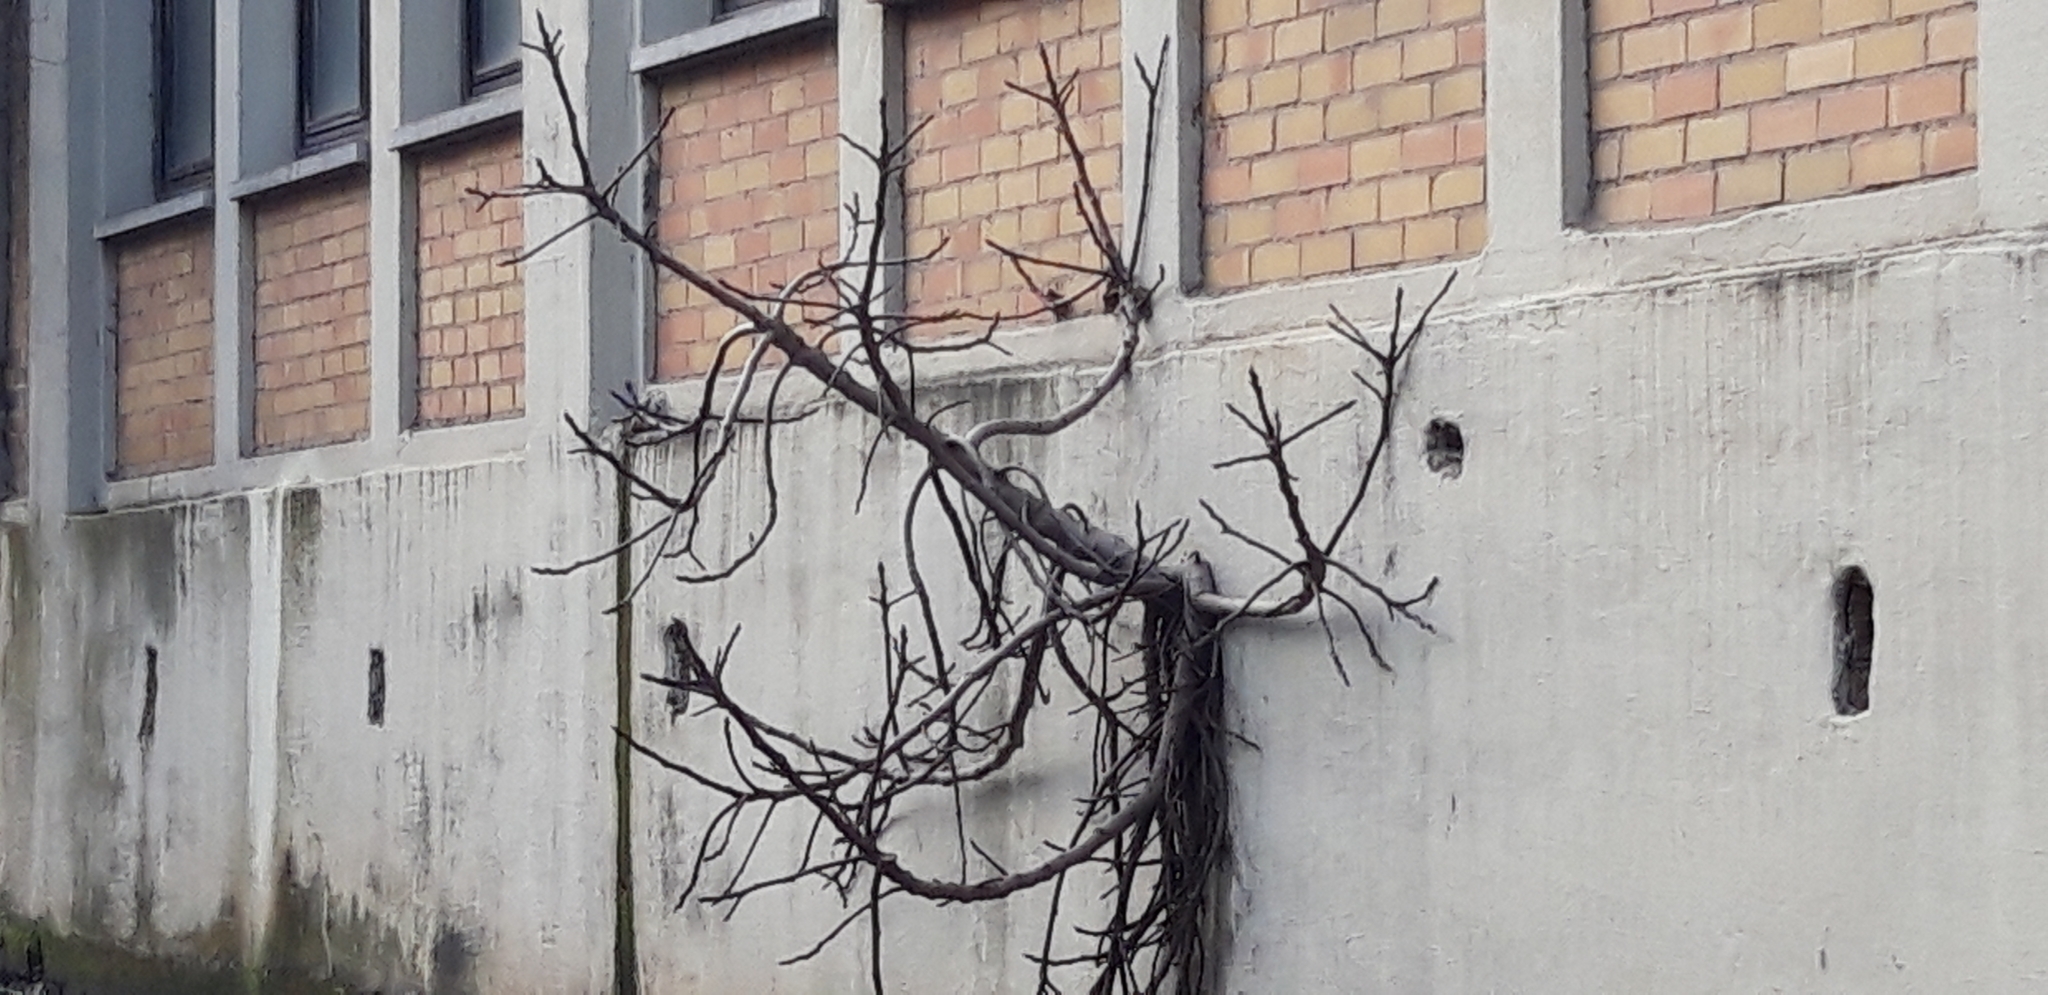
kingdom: Plantae
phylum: Tracheophyta
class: Magnoliopsida
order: Rosales
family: Moraceae
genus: Ficus
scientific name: Ficus carica
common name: Fig
